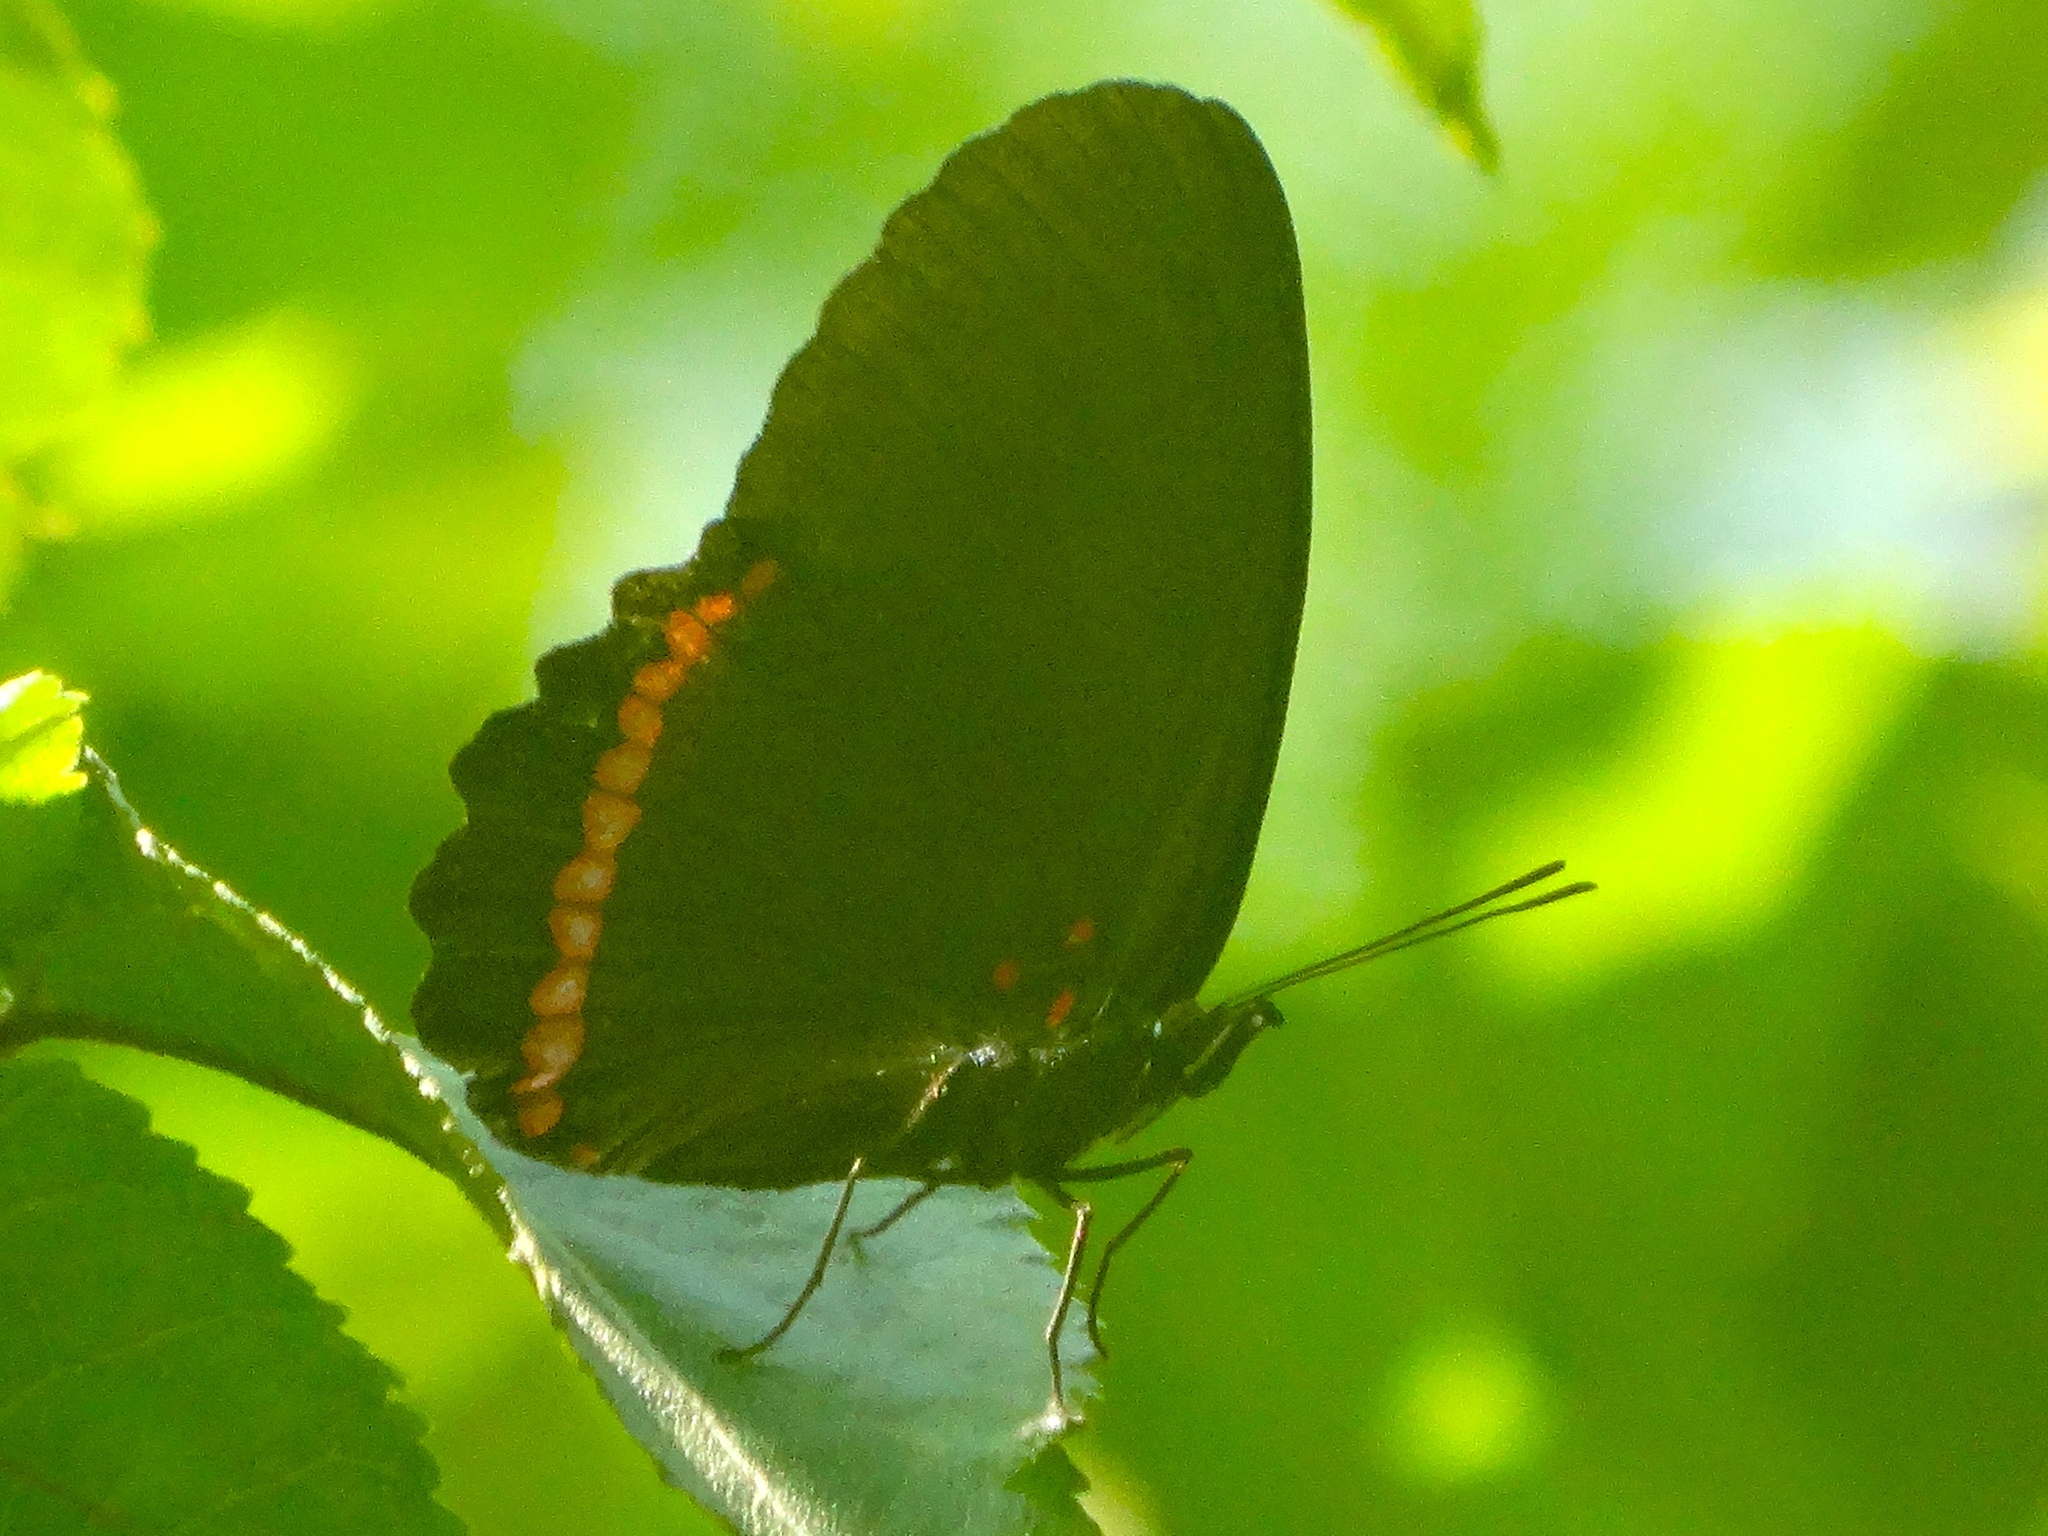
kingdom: Animalia
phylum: Arthropoda
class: Insecta
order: Lepidoptera
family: Nymphalidae
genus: Biblis
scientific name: Biblis
